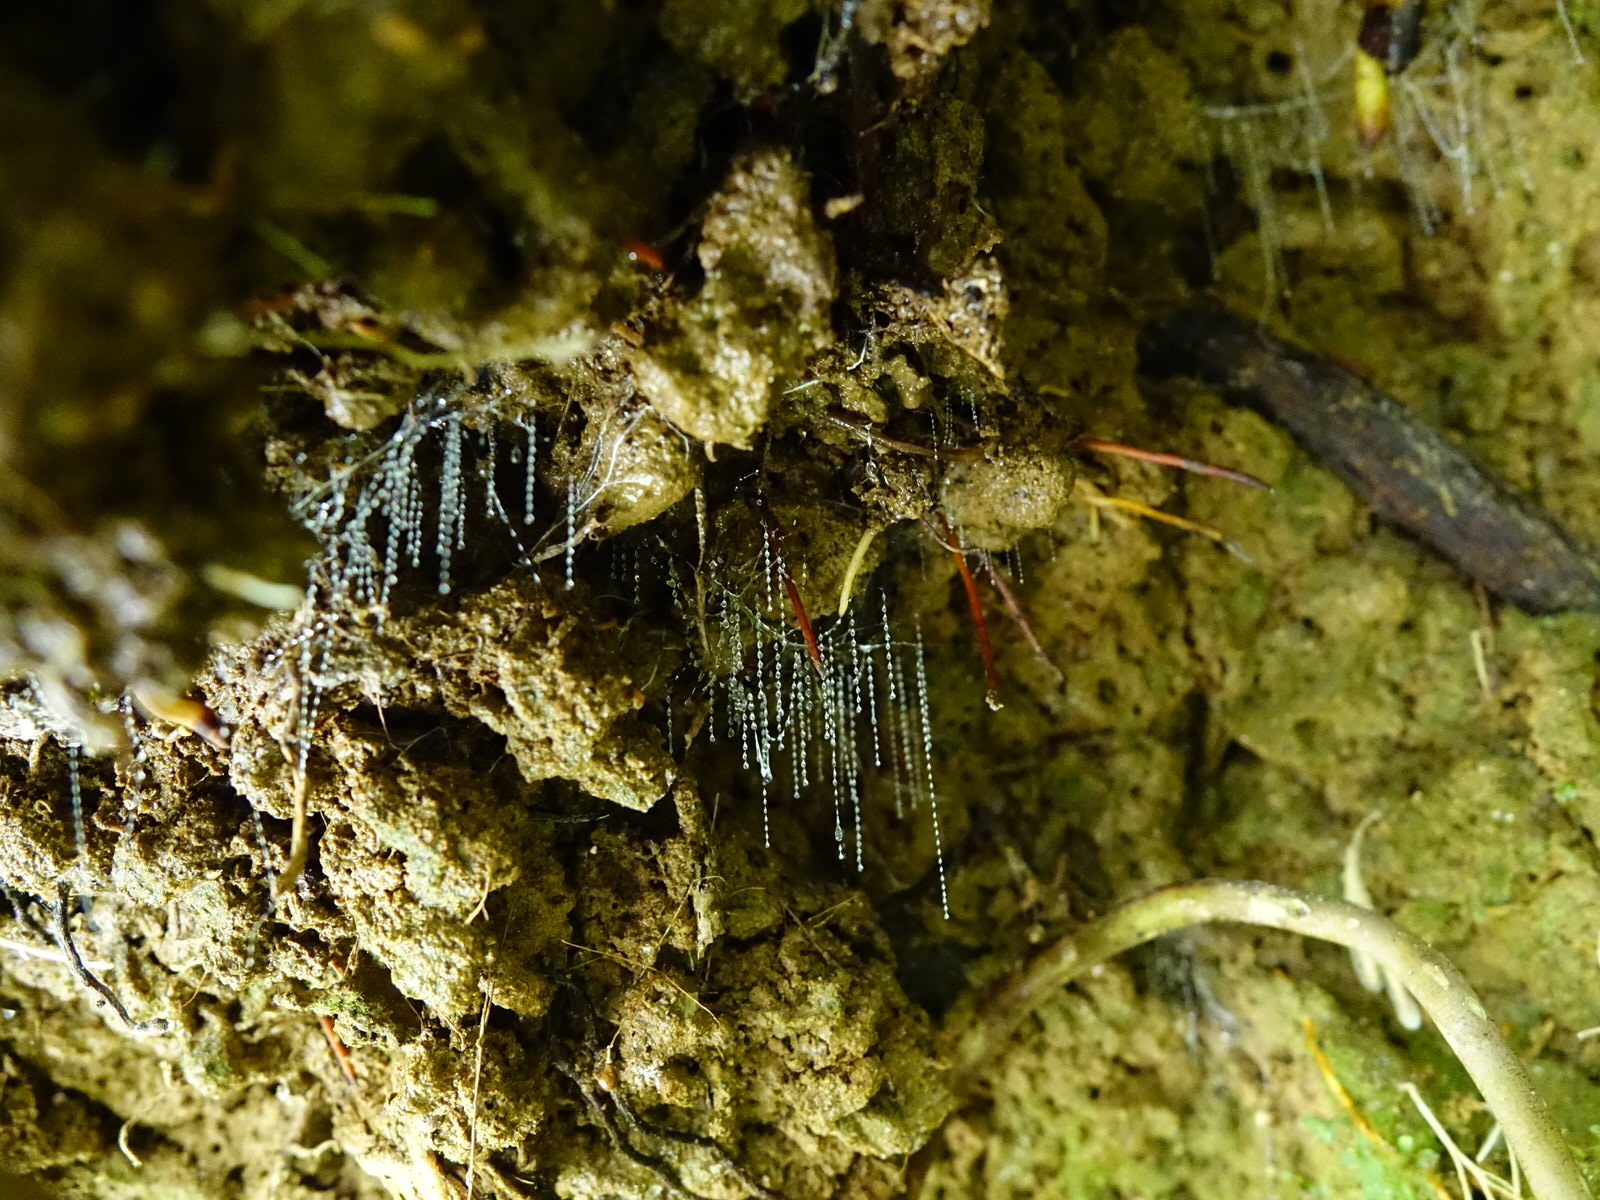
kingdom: Animalia
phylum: Arthropoda
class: Insecta
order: Diptera
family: Keroplatidae
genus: Arachnocampa
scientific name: Arachnocampa luminosa
